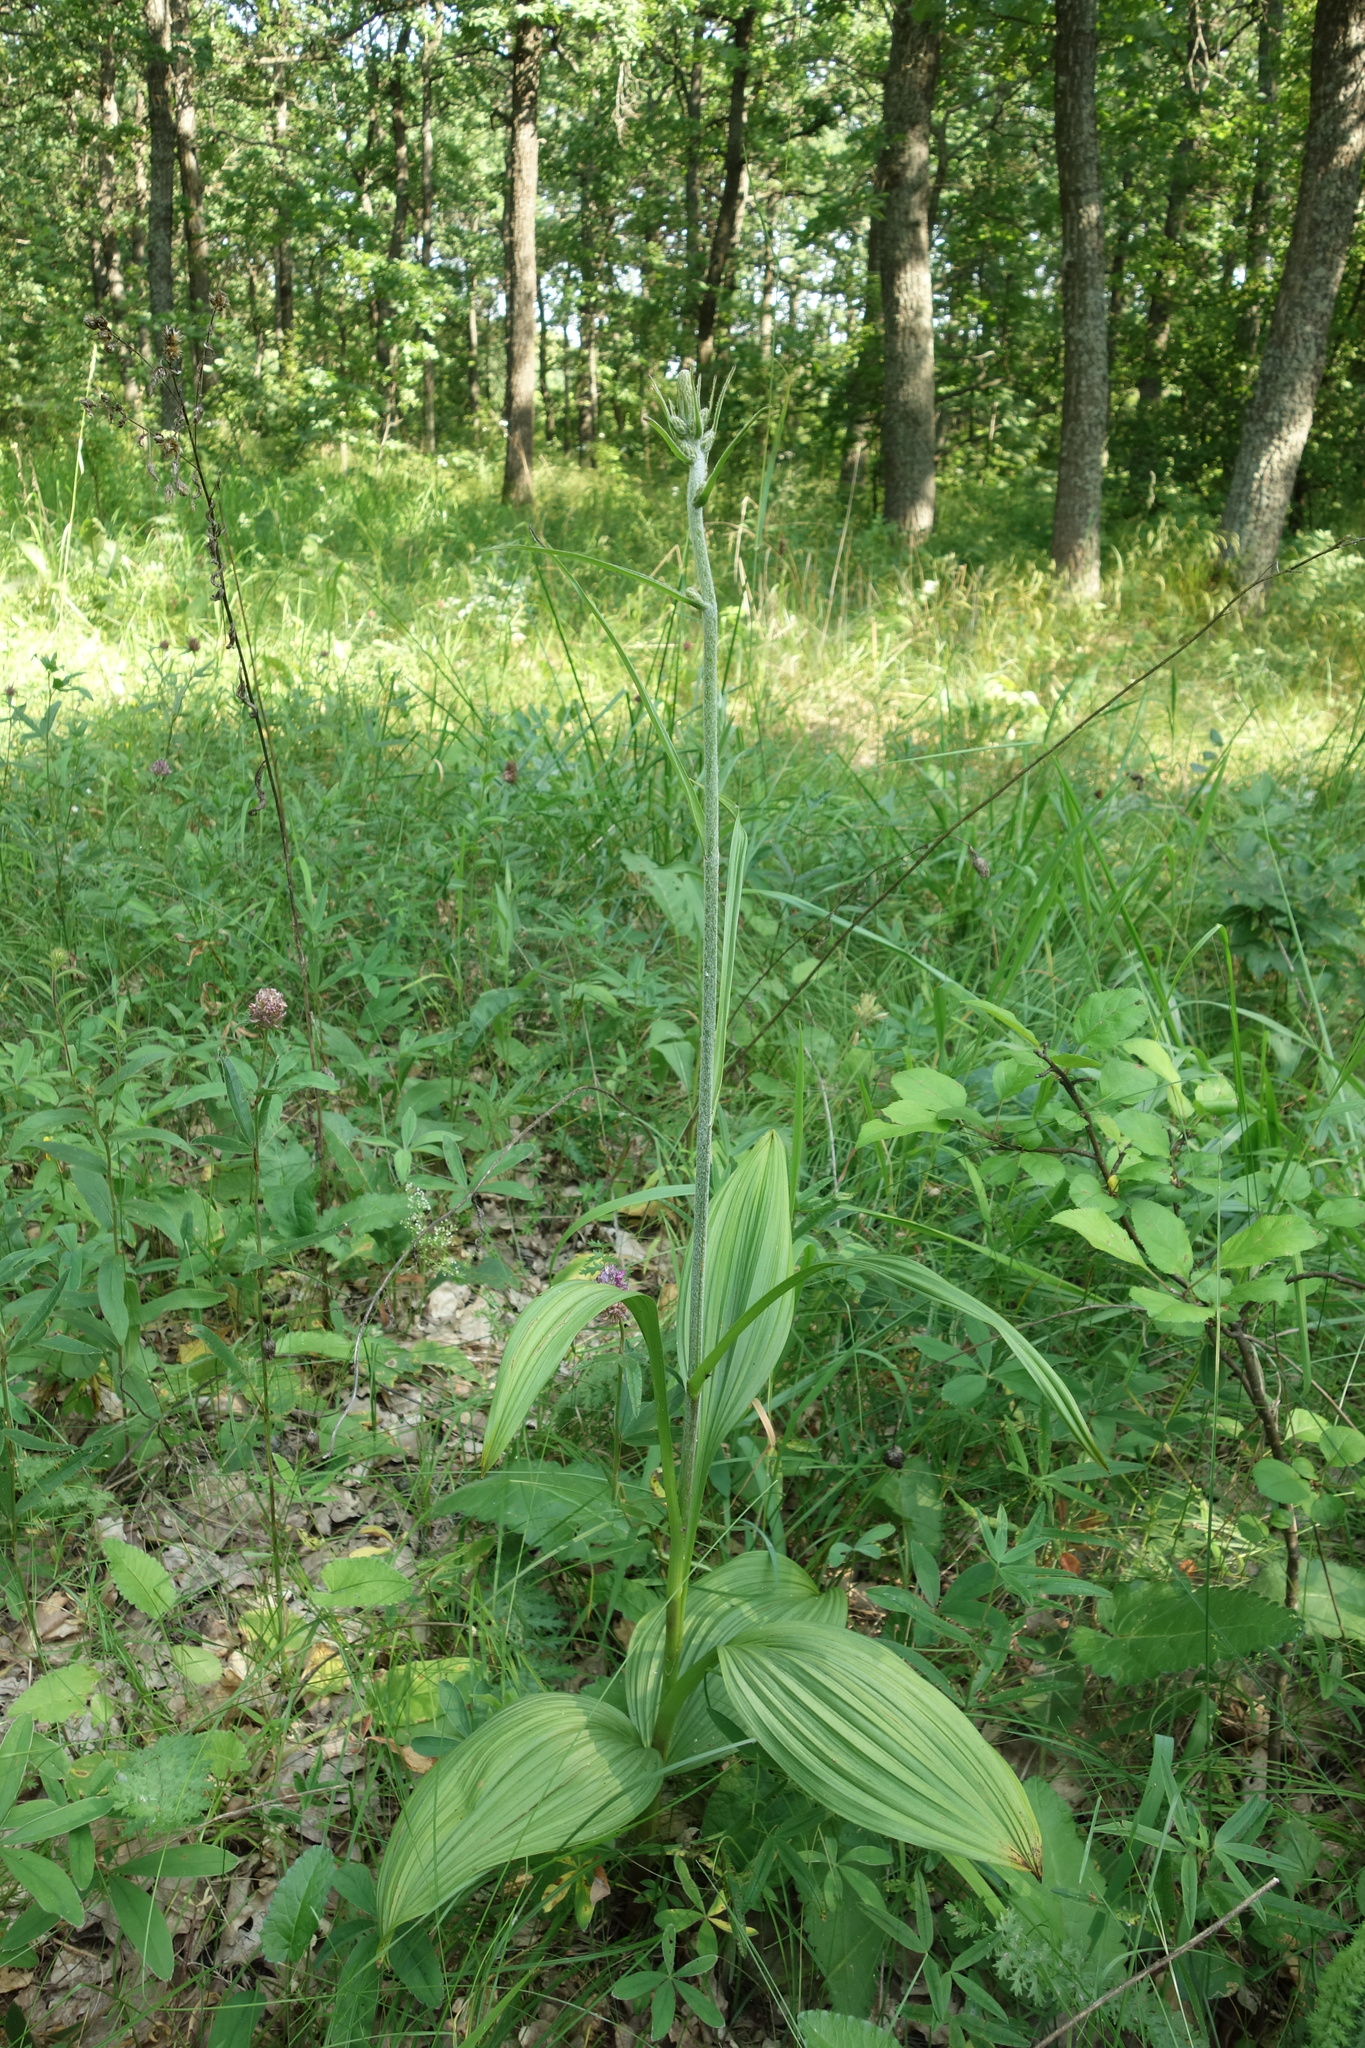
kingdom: Plantae
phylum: Tracheophyta
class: Liliopsida
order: Liliales
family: Melanthiaceae
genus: Veratrum
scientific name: Veratrum nigrum
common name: Black veratrum
